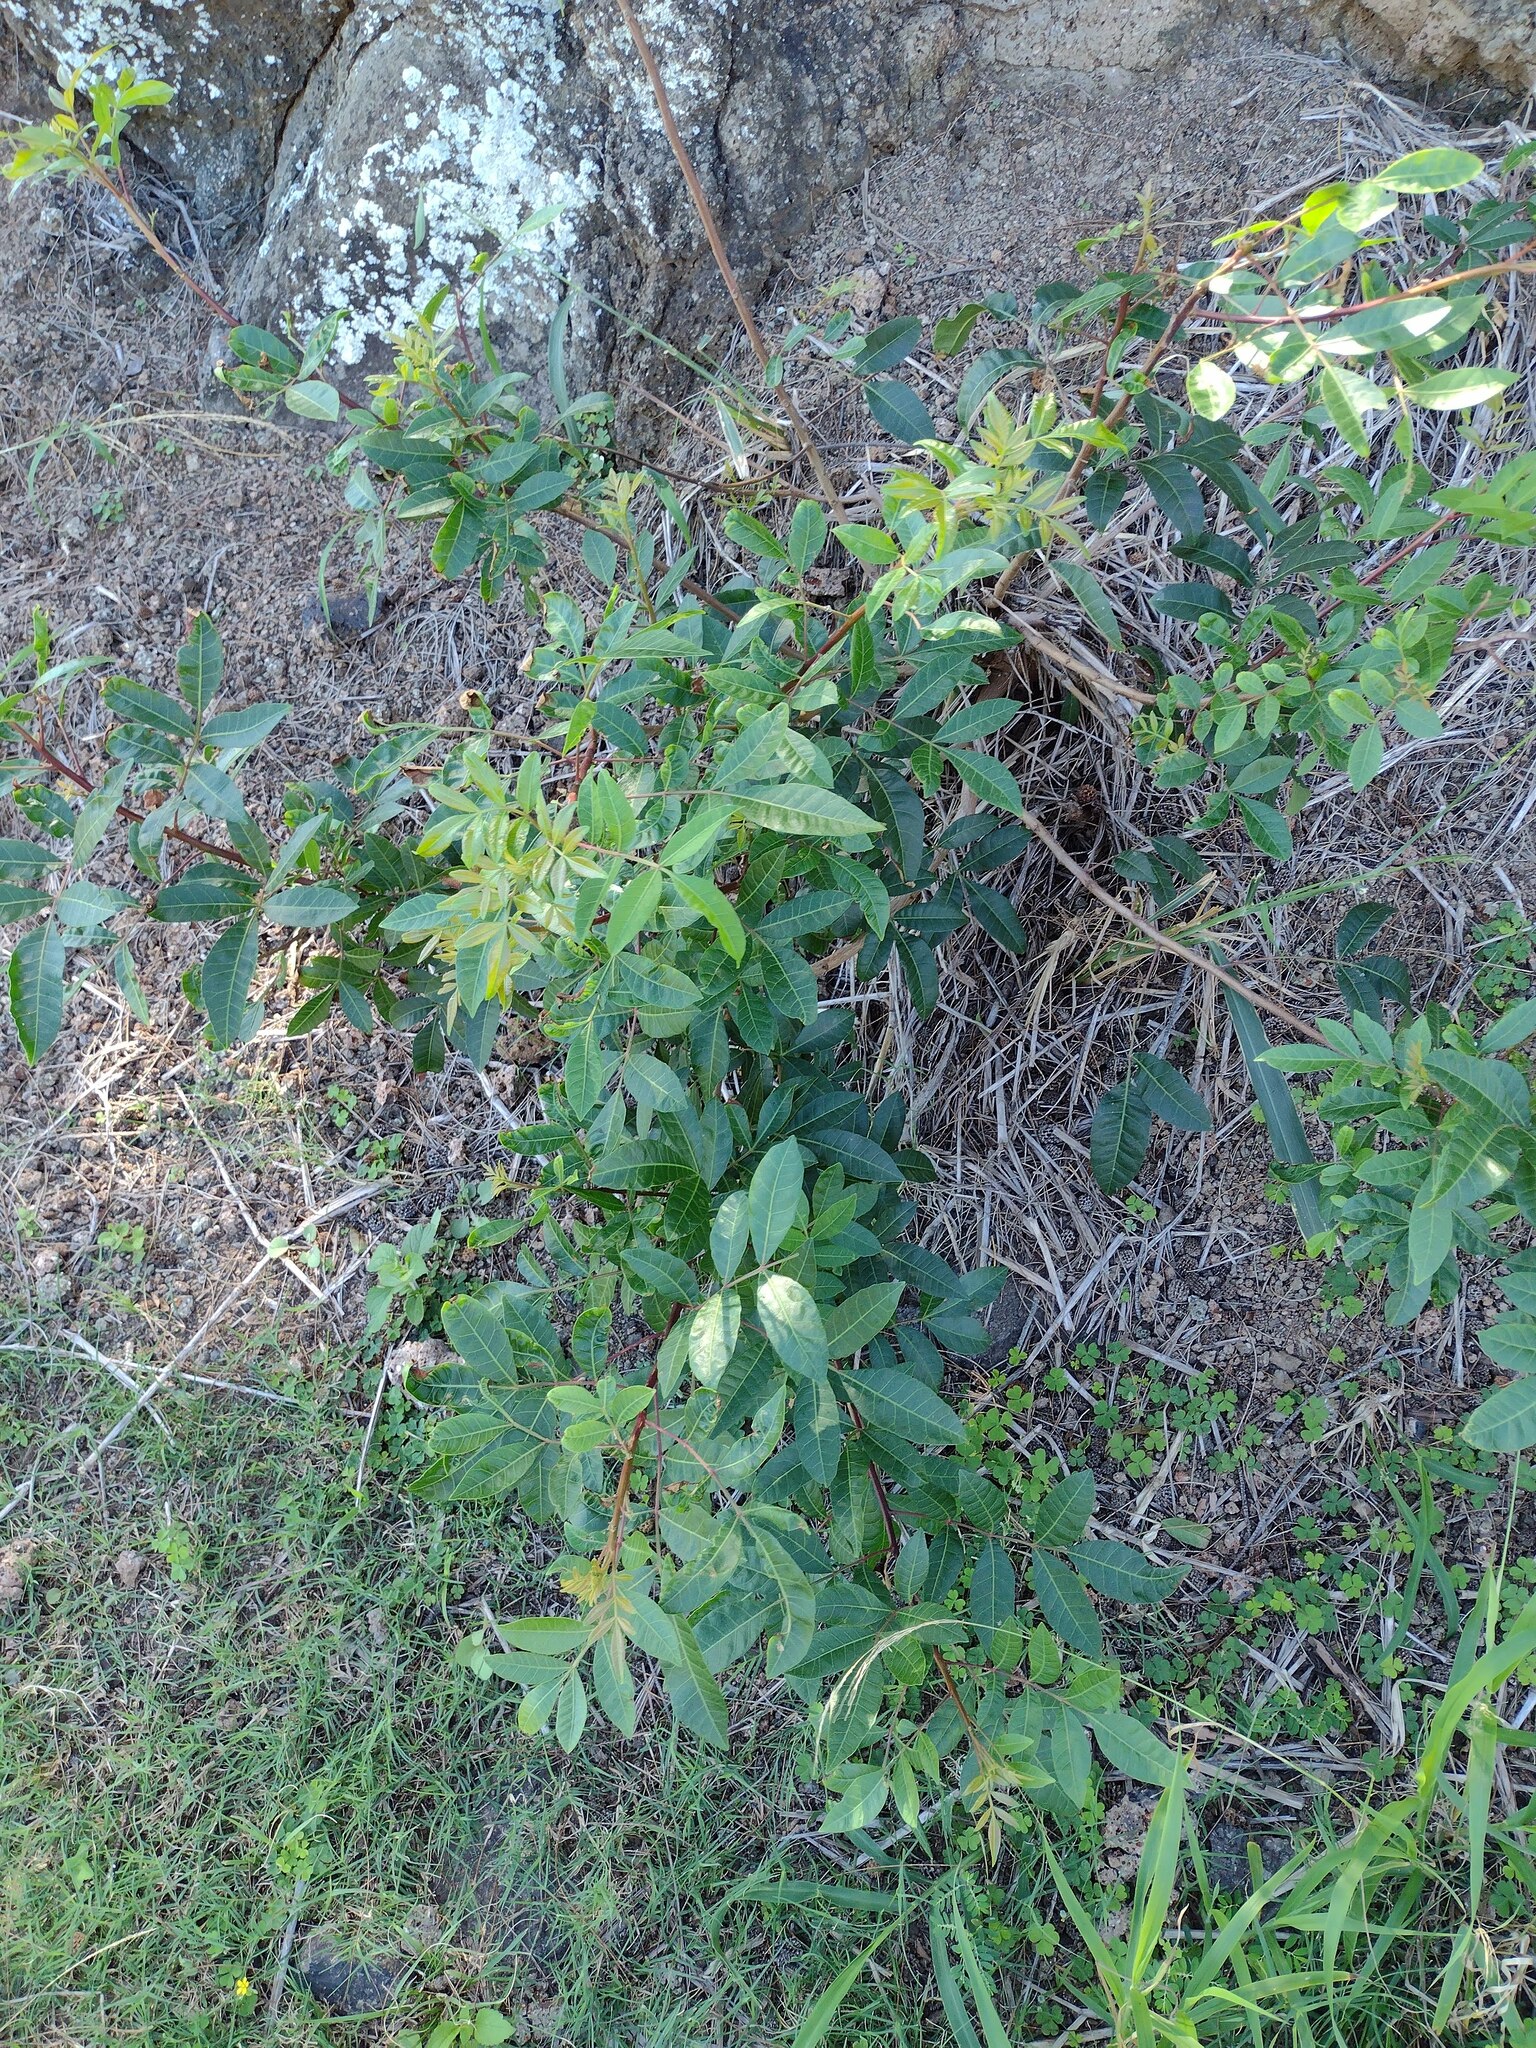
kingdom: Plantae
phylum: Tracheophyta
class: Magnoliopsida
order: Sapindales
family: Anacardiaceae
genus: Schinus
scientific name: Schinus terebinthifolia
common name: Brazilian peppertree
